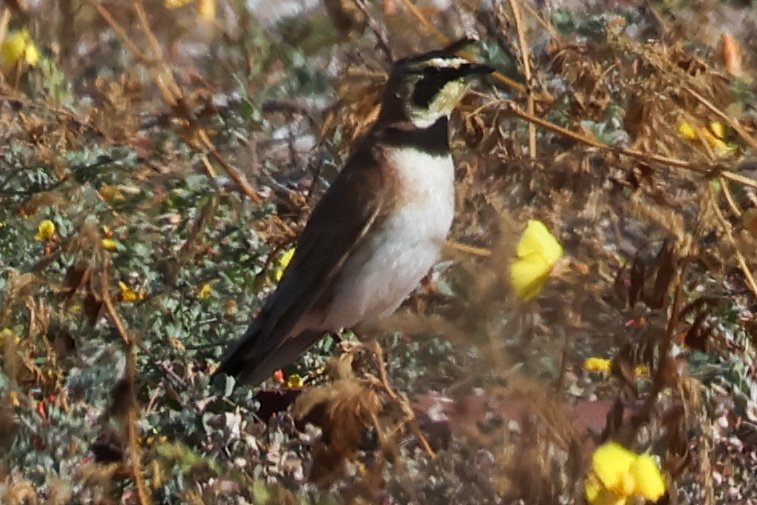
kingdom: Animalia
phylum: Chordata
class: Aves
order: Passeriformes
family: Alaudidae
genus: Eremophila
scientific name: Eremophila alpestris
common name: Horned lark
